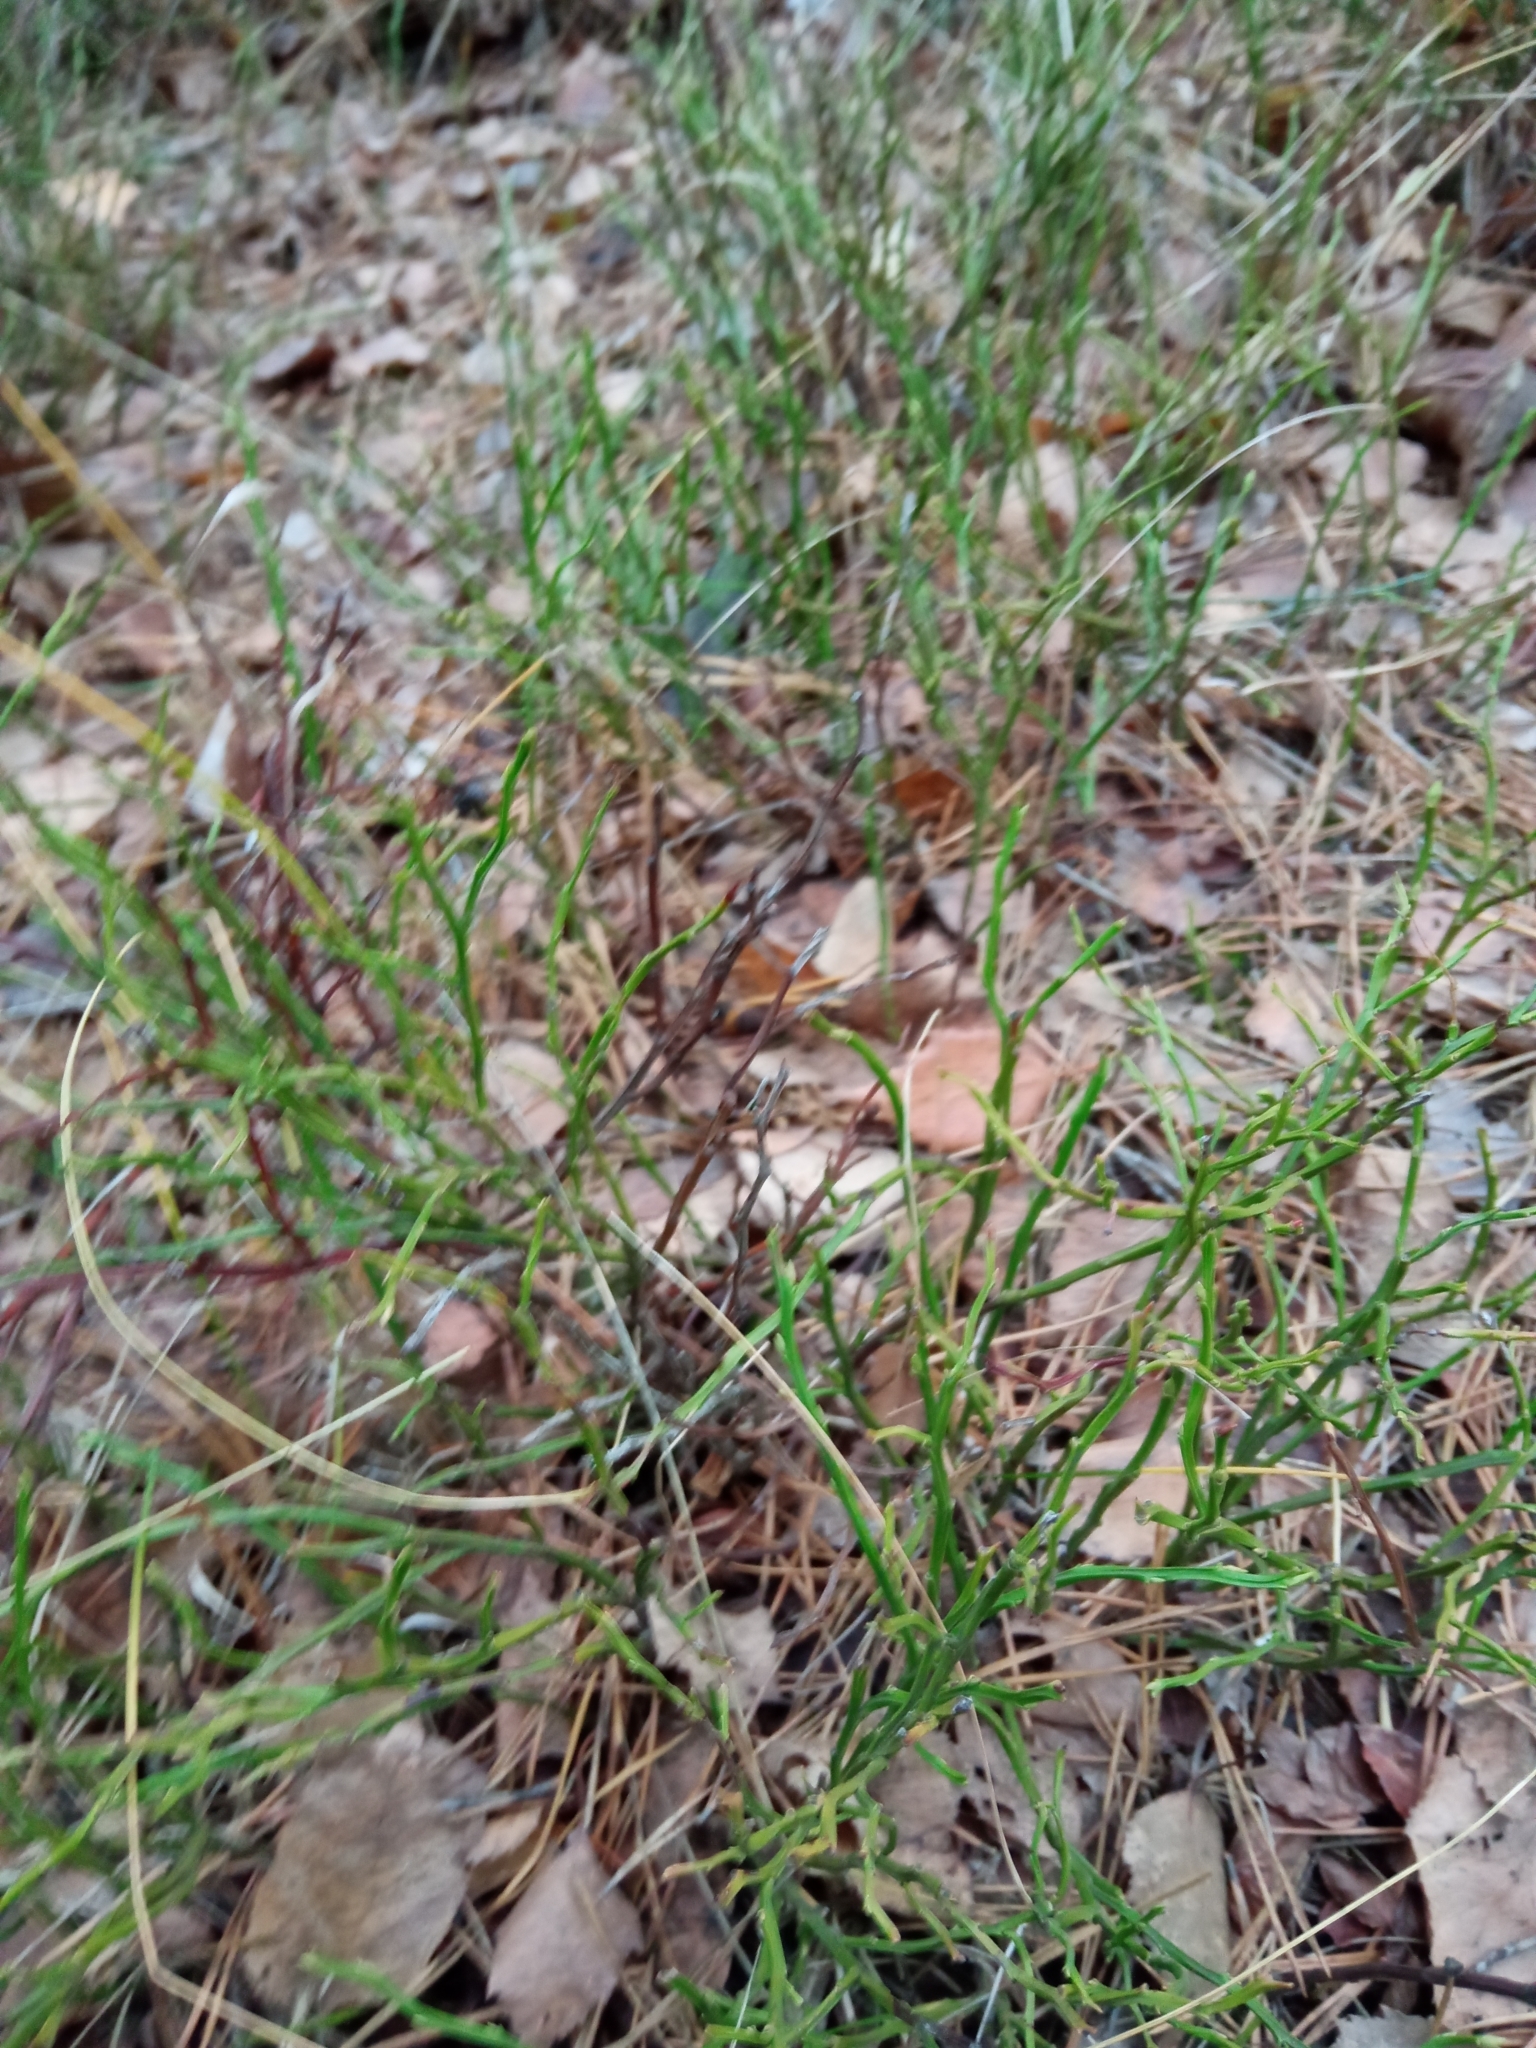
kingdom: Plantae
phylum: Tracheophyta
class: Magnoliopsida
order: Ericales
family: Ericaceae
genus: Vaccinium
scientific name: Vaccinium myrtillus
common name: Bilberry
